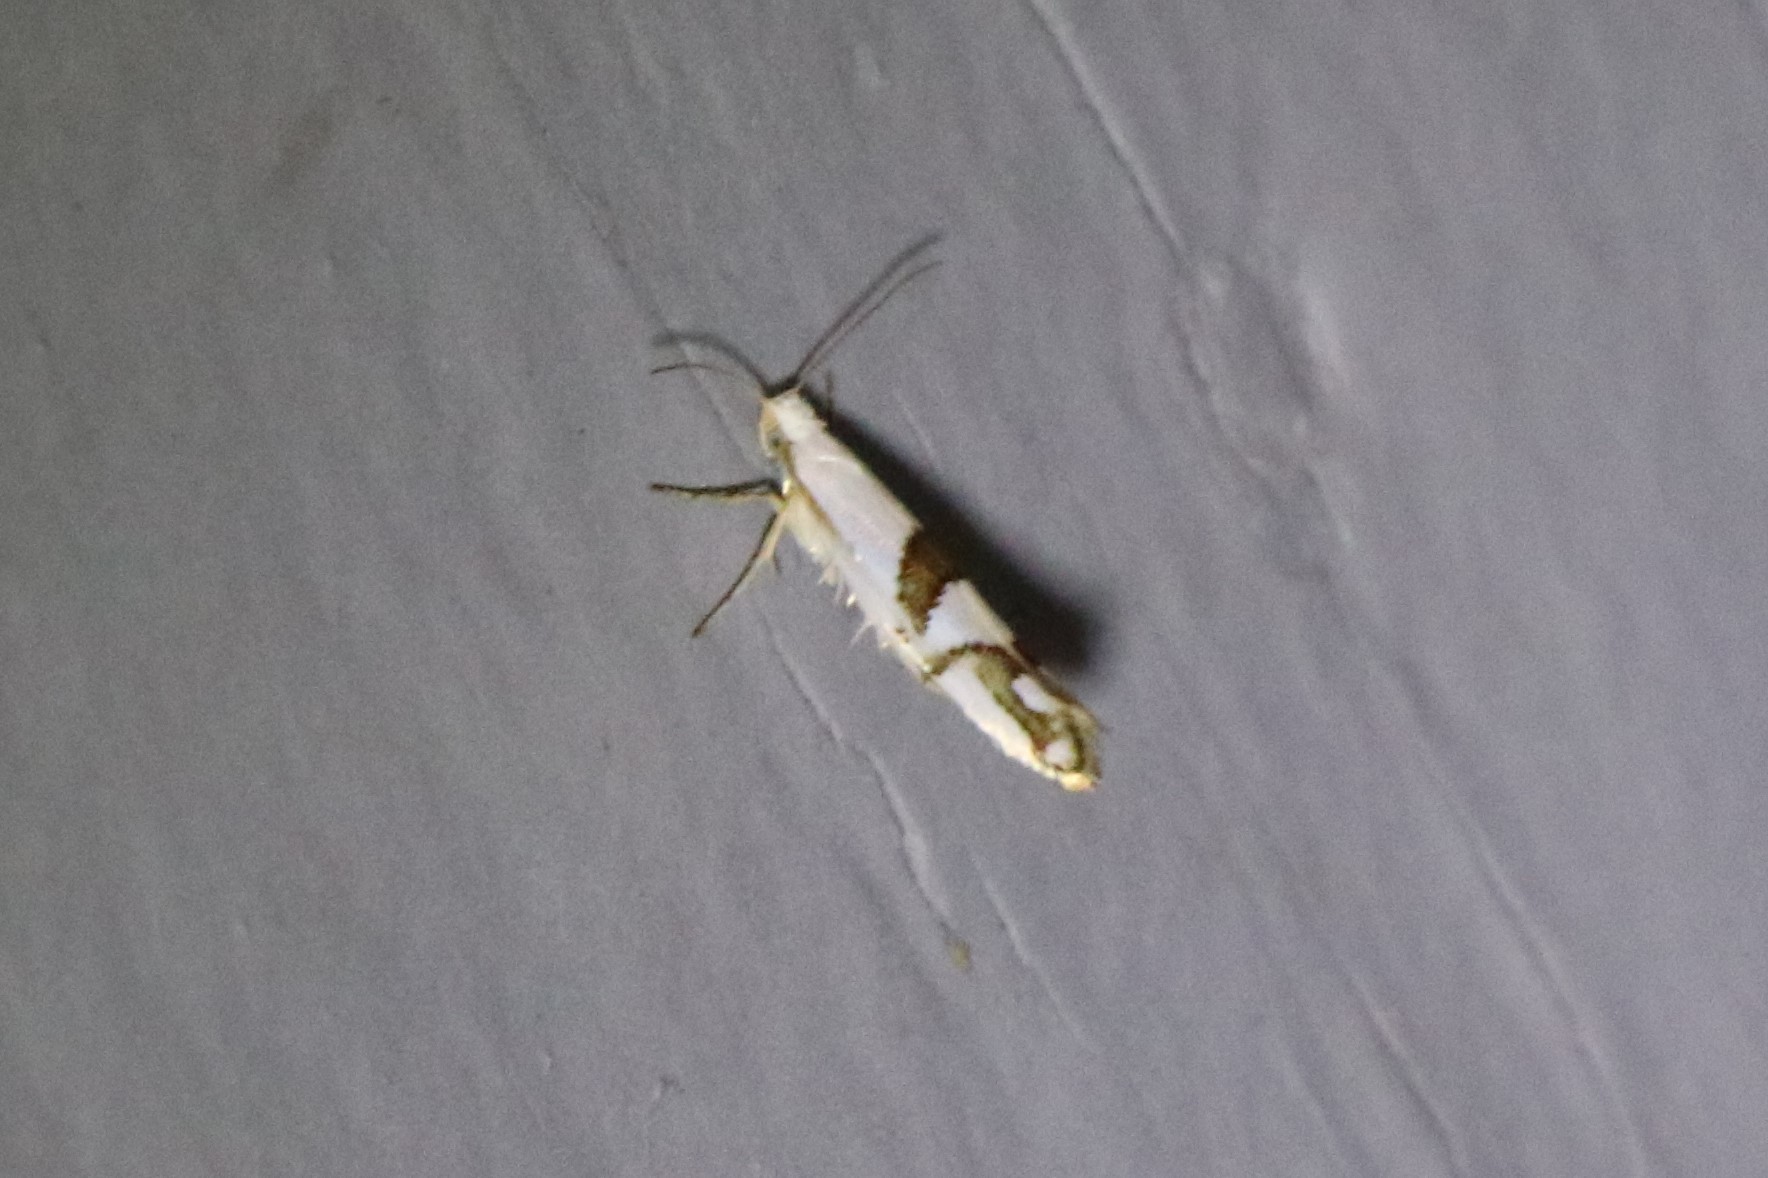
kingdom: Animalia
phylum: Arthropoda
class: Insecta
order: Lepidoptera
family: Argyresthiidae
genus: Argyresthia
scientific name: Argyresthia oreasella
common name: Cherry shoot borer moth
